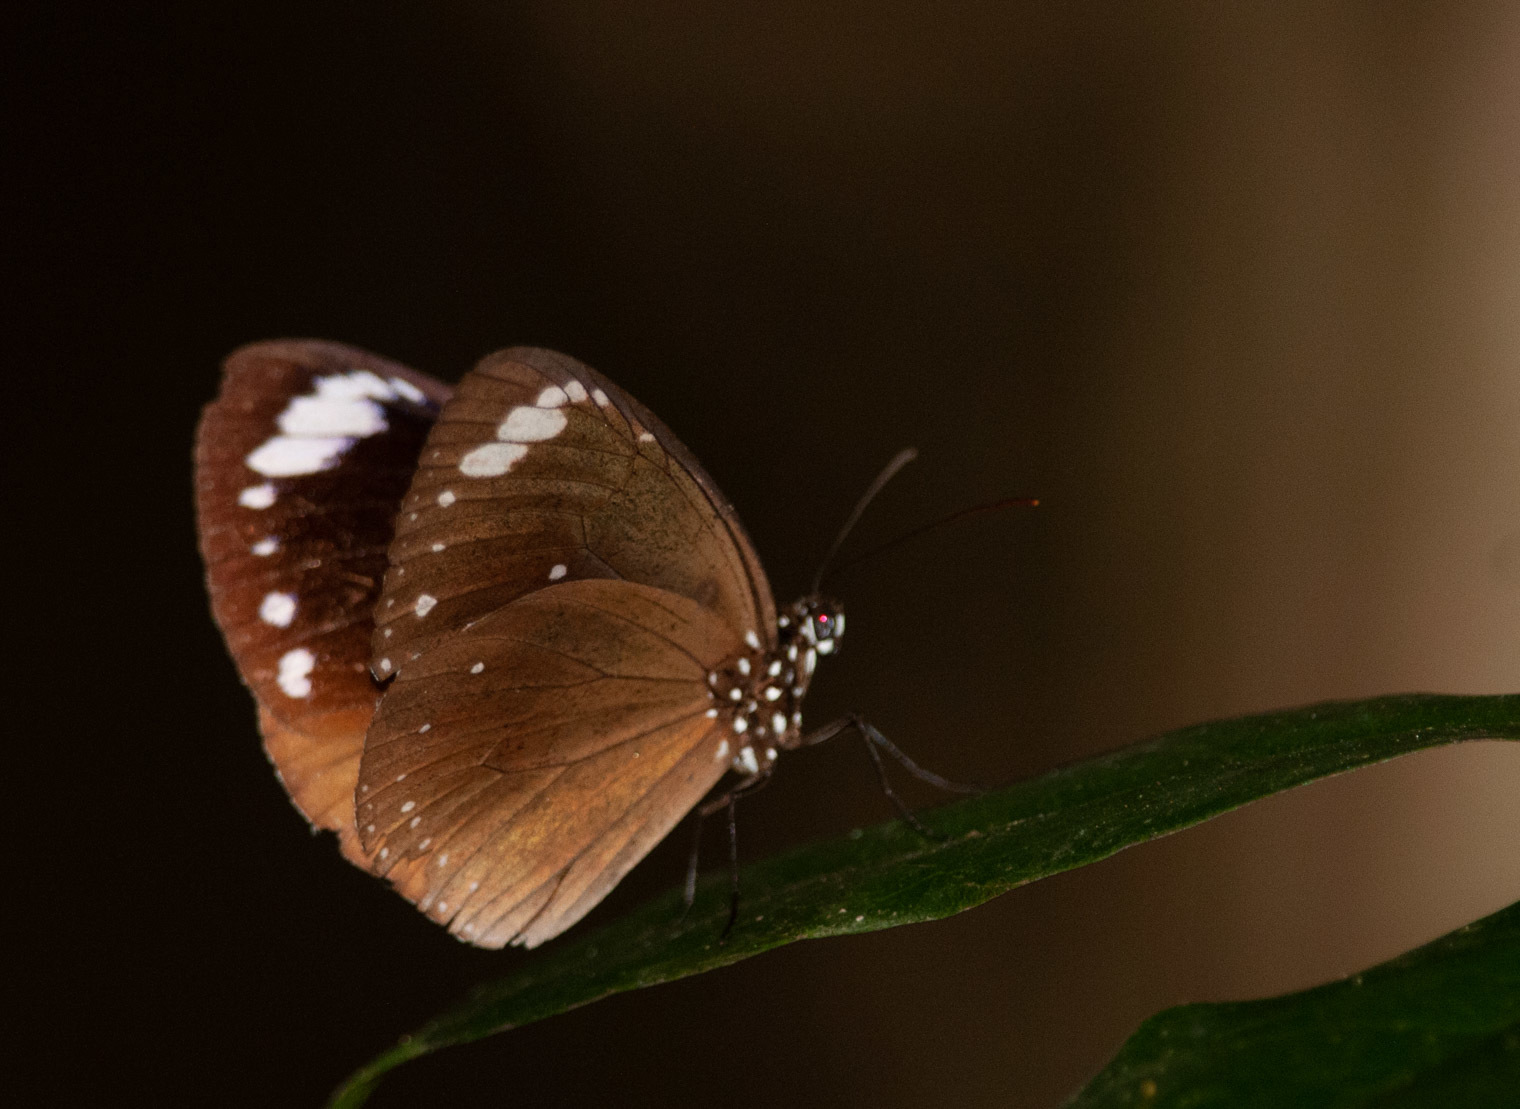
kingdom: Animalia
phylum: Arthropoda
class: Insecta
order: Lepidoptera
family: Nymphalidae
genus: Euploea
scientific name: Euploea tulliolus
